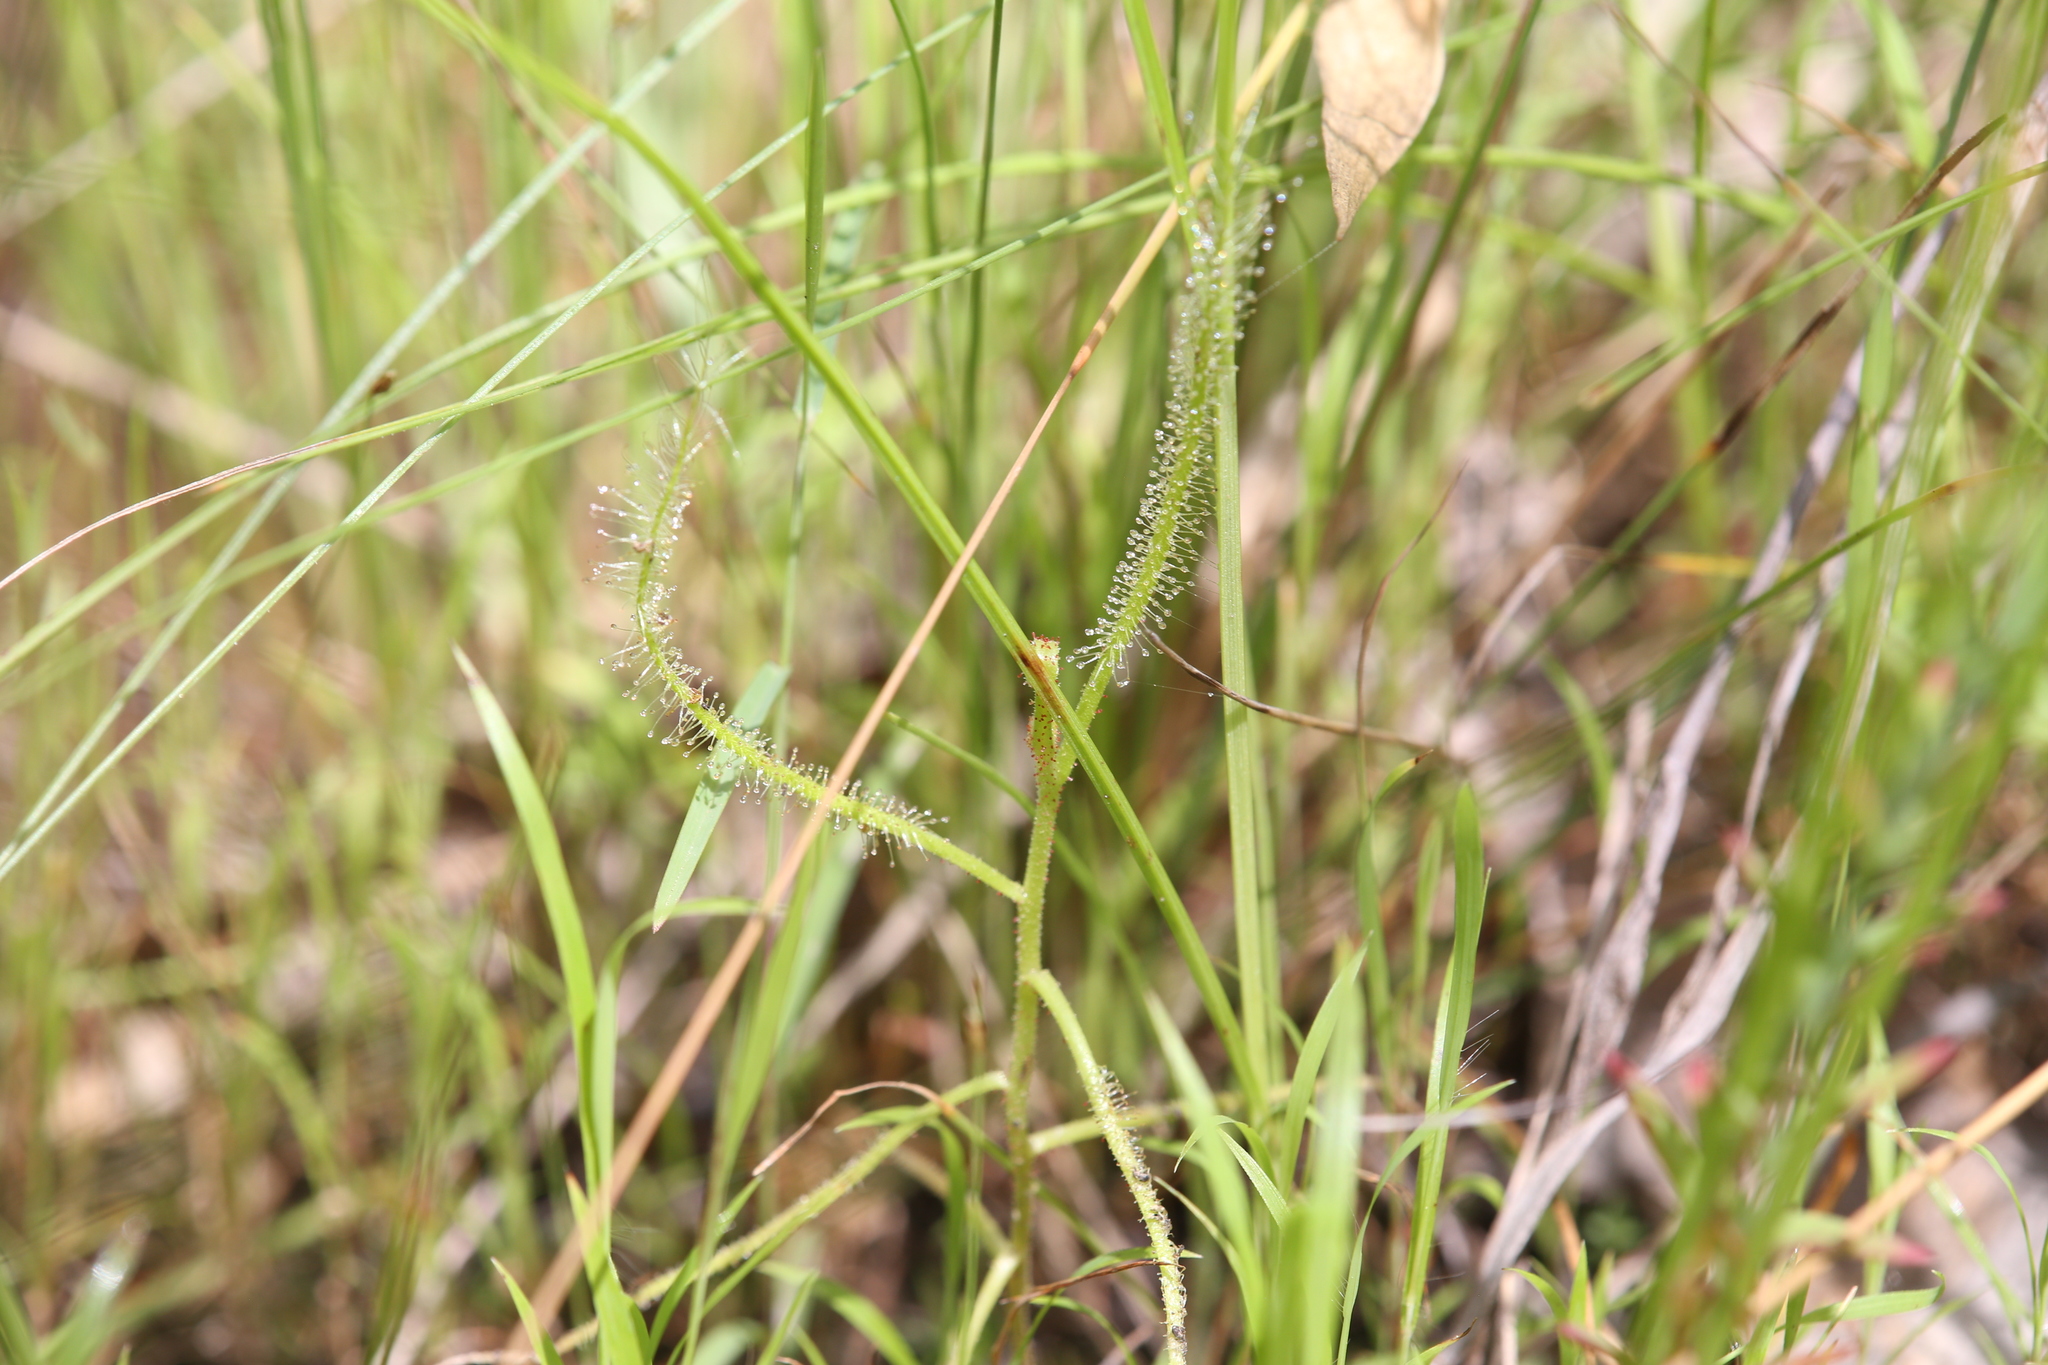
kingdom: Plantae
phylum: Tracheophyta
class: Magnoliopsida
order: Caryophyllales
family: Droseraceae
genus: Drosera
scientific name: Drosera indica
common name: Indian sundew
